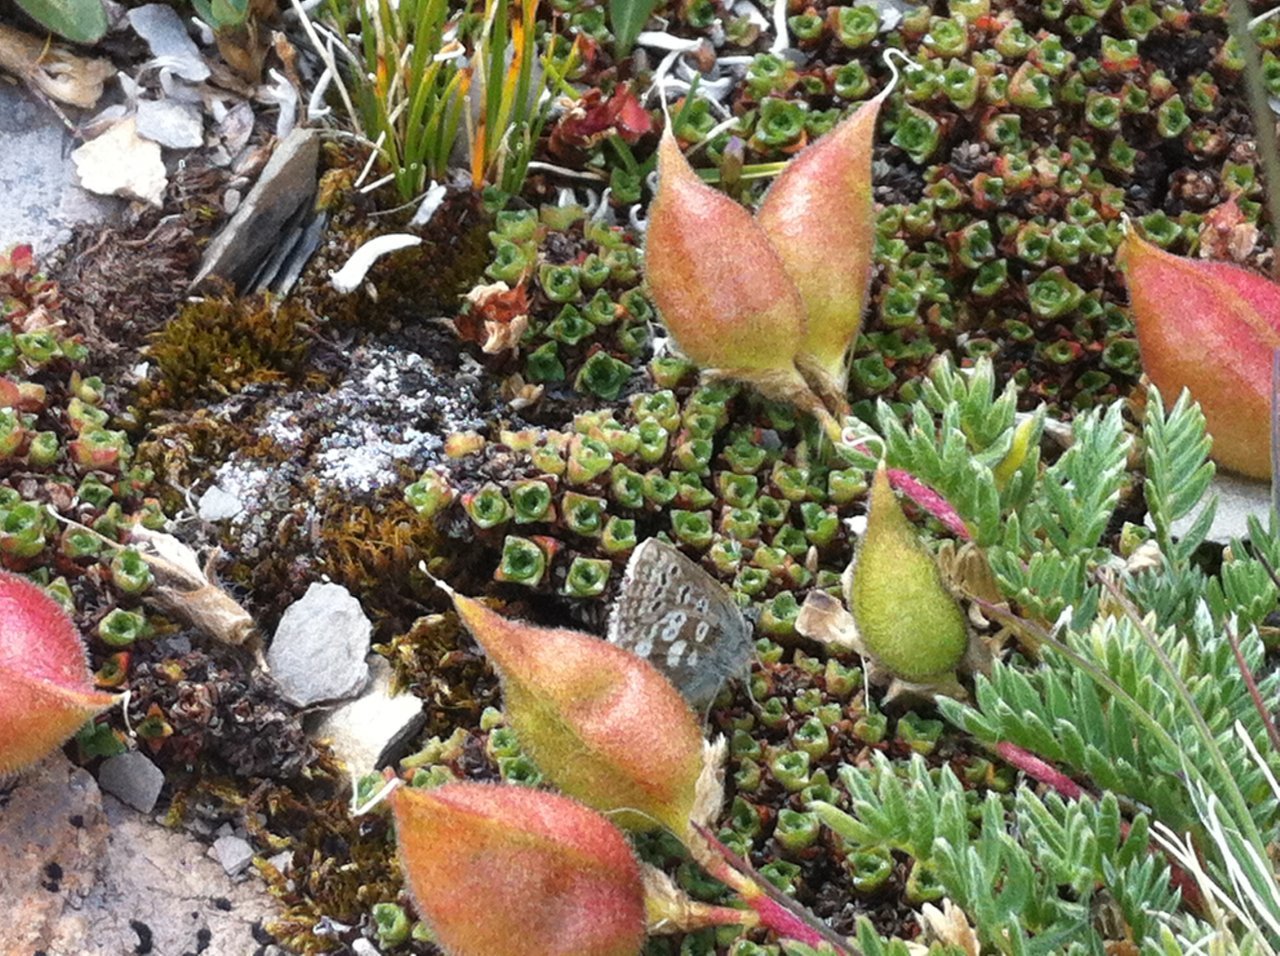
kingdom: Animalia
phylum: Arthropoda
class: Insecta
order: Lepidoptera
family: Lycaenidae
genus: Agriades
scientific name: Agriades glandon
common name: Glandon blue
